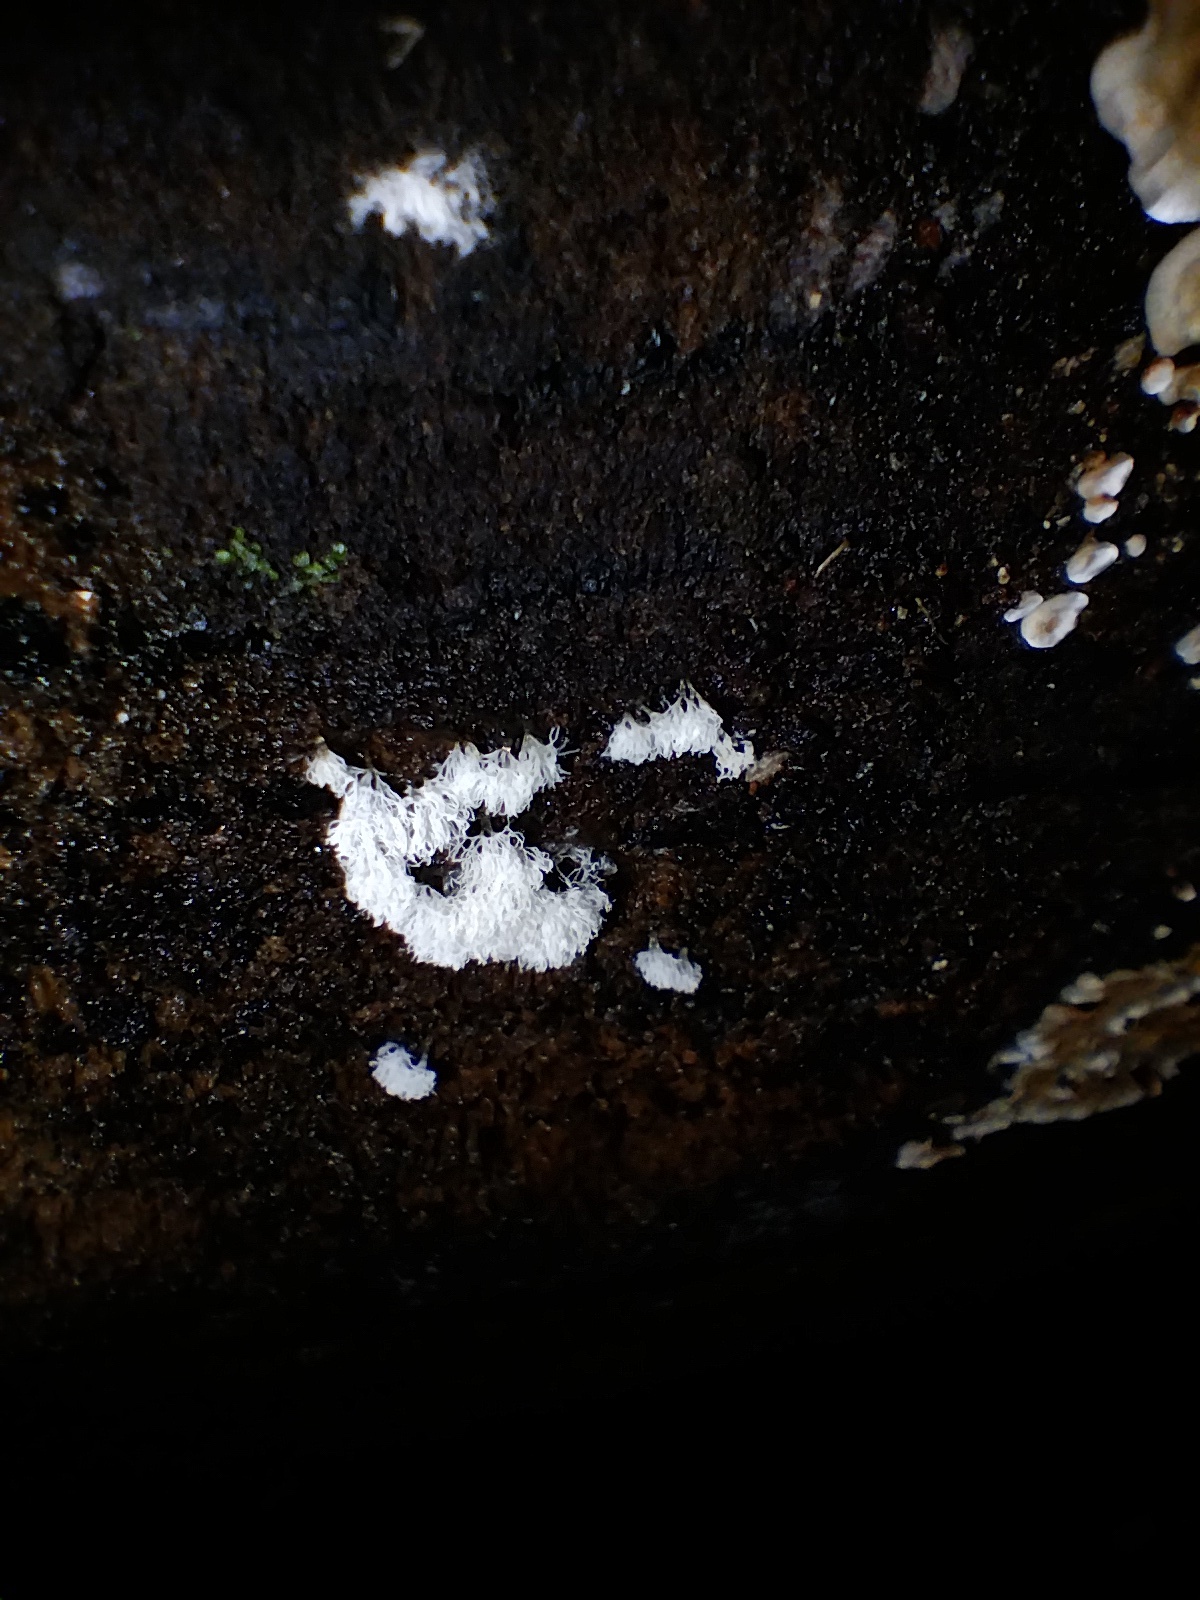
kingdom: Protozoa
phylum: Mycetozoa
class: Protosteliomycetes
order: Ceratiomyxales
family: Ceratiomyxaceae
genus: Ceratiomyxa
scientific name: Ceratiomyxa fruticulosa
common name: Honeycomb coral slime mold
